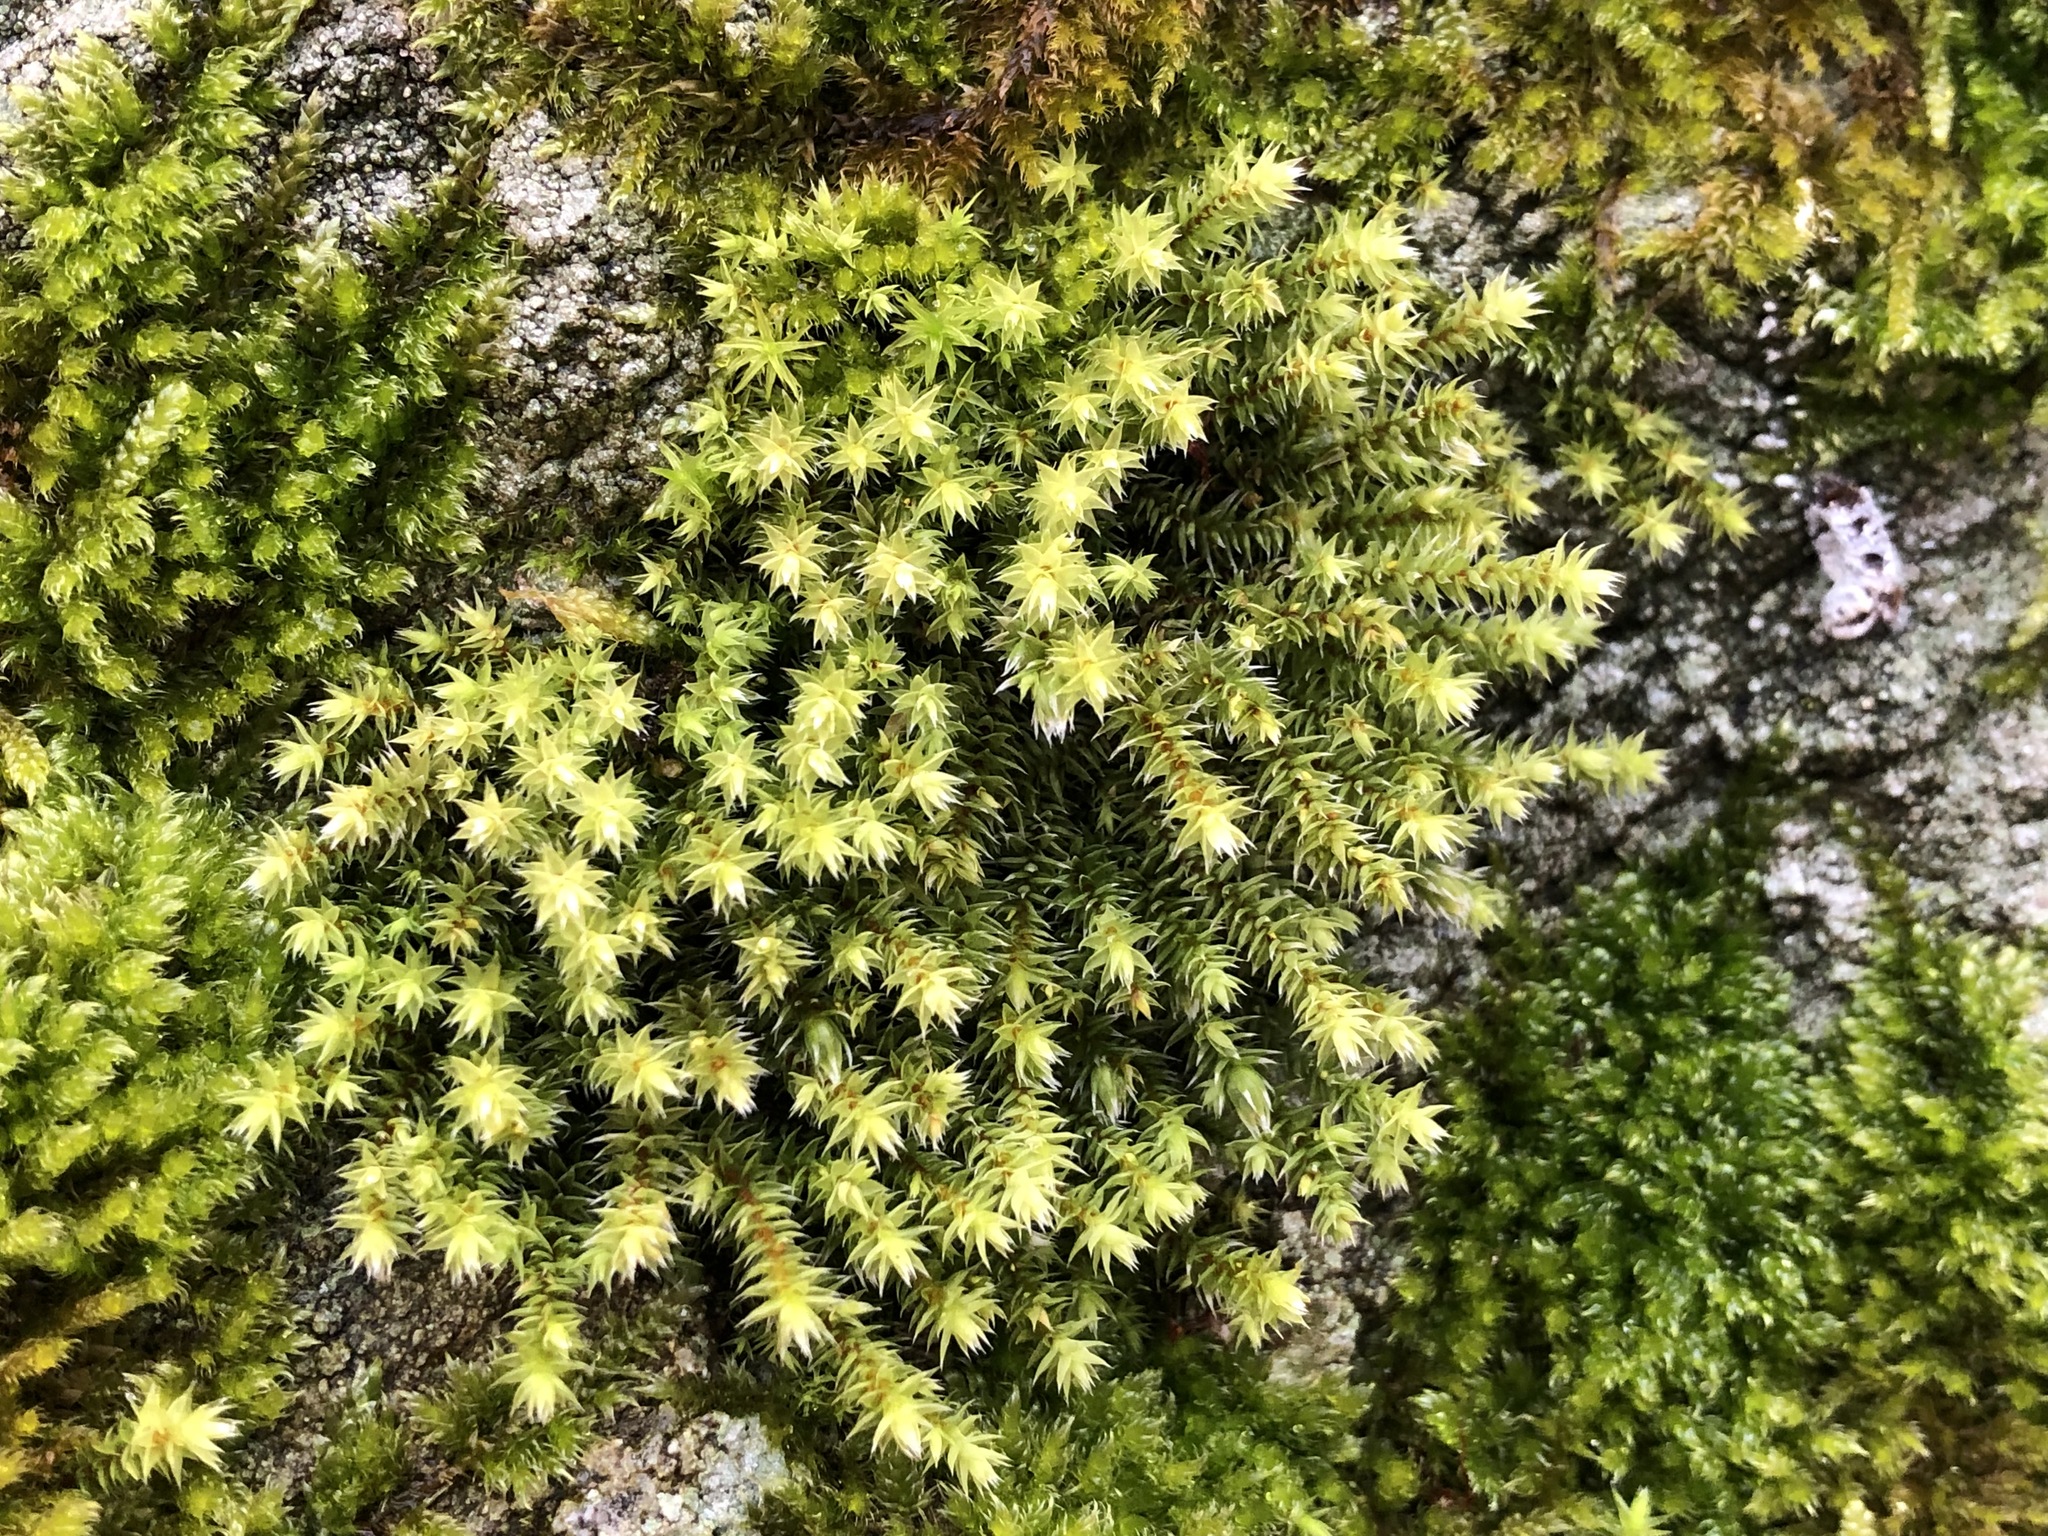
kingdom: Plantae
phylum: Bryophyta
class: Bryopsida
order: Bryales
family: Bryaceae
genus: Ptychostomum
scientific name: Ptychostomum pseudotriquetrum
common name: Long-leaved thread moss
